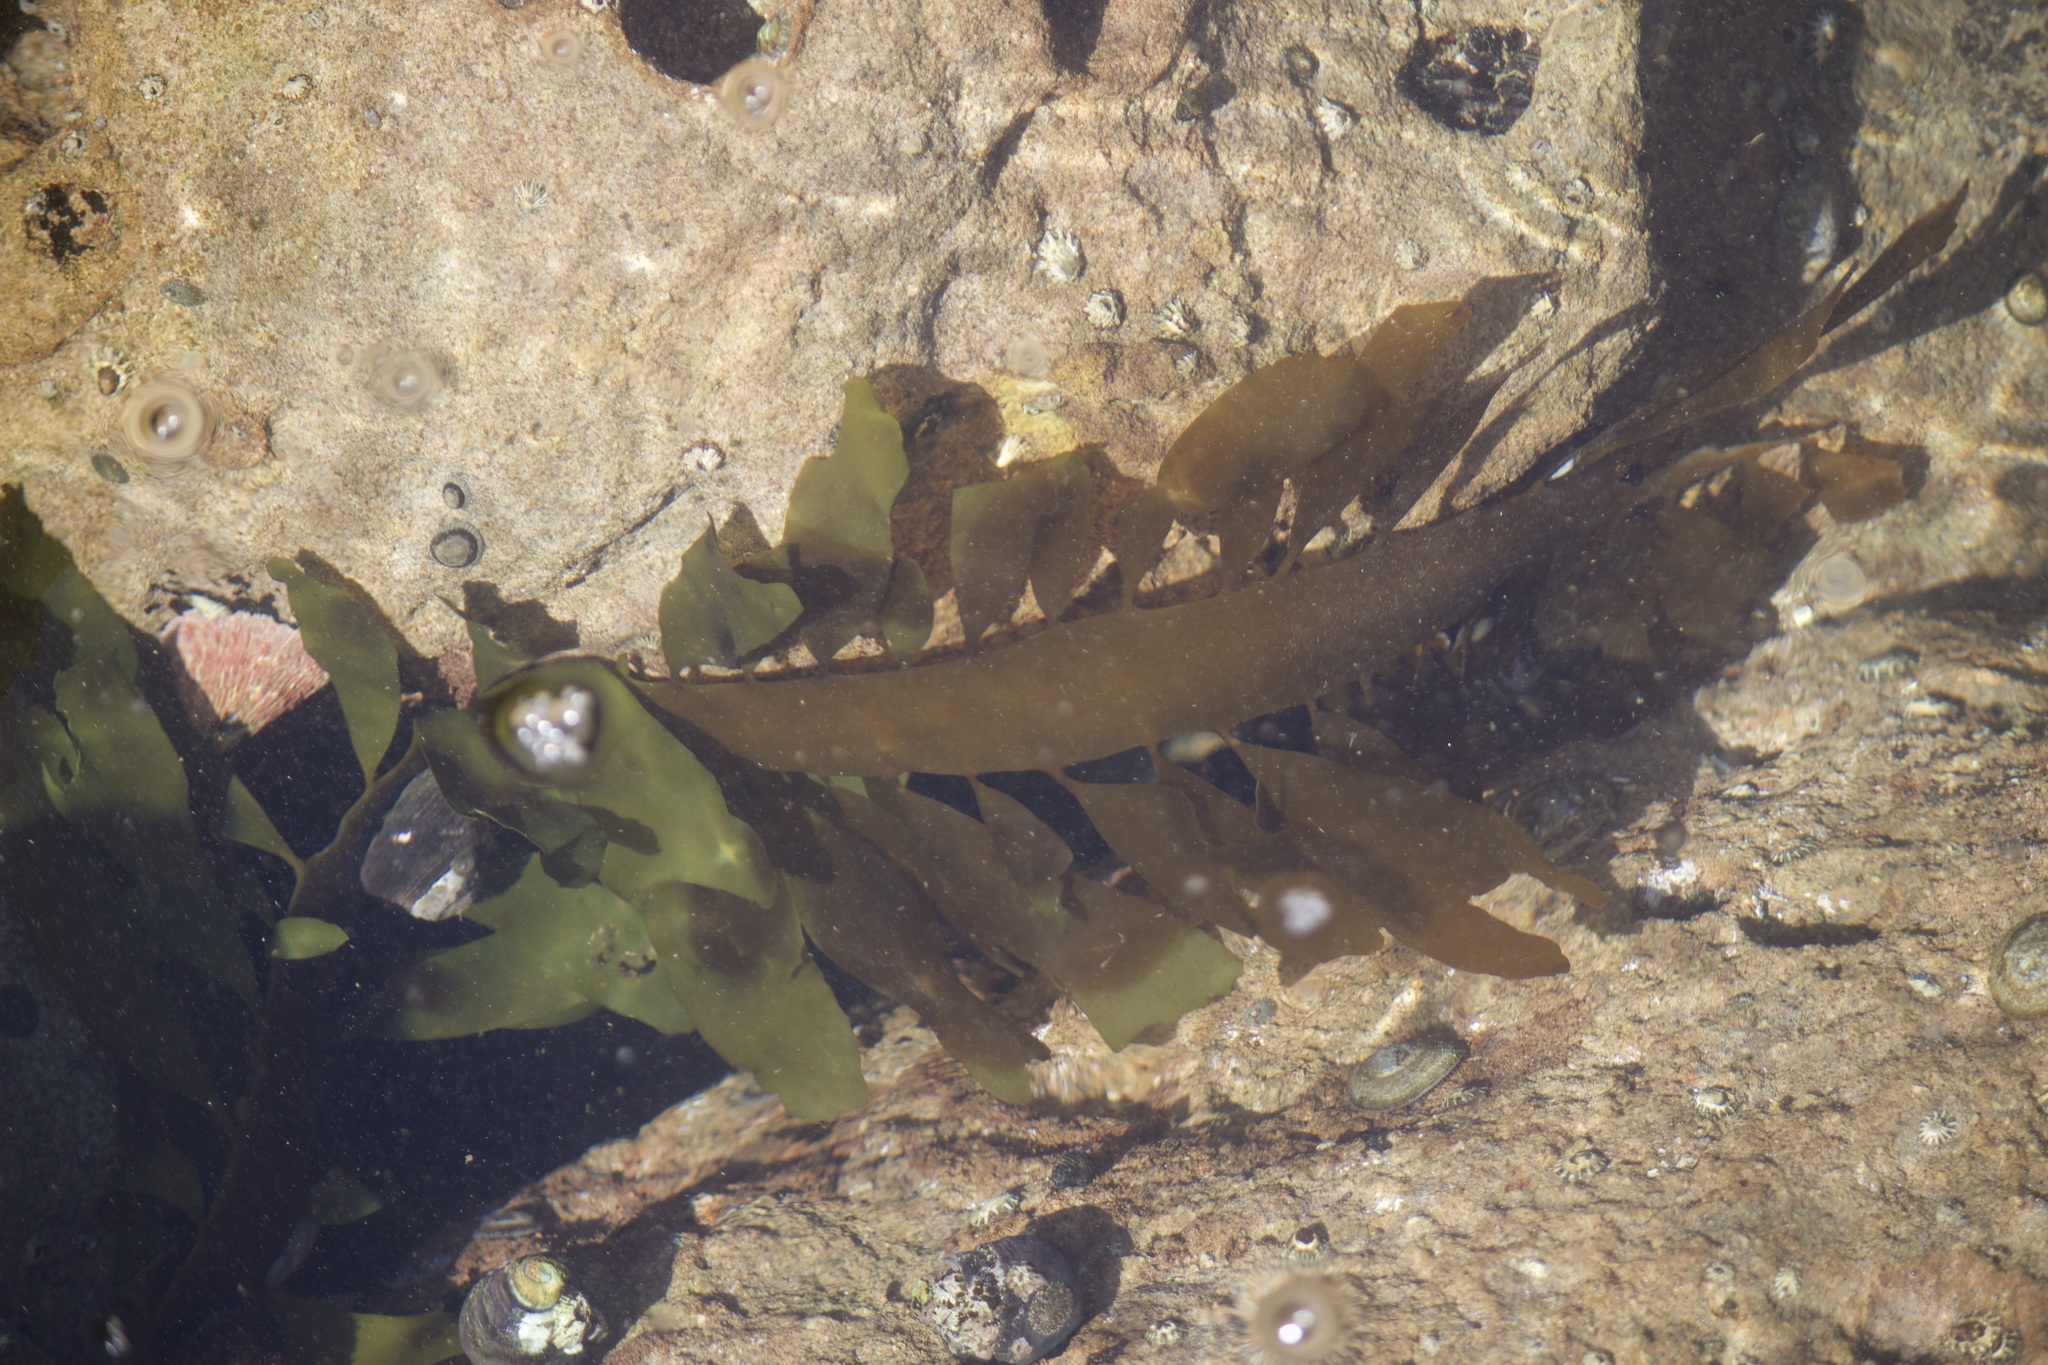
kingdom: Chromista
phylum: Ochrophyta
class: Phaeophyceae
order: Laminariales
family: Lessoniaceae
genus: Egregia
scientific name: Egregia menziesii
